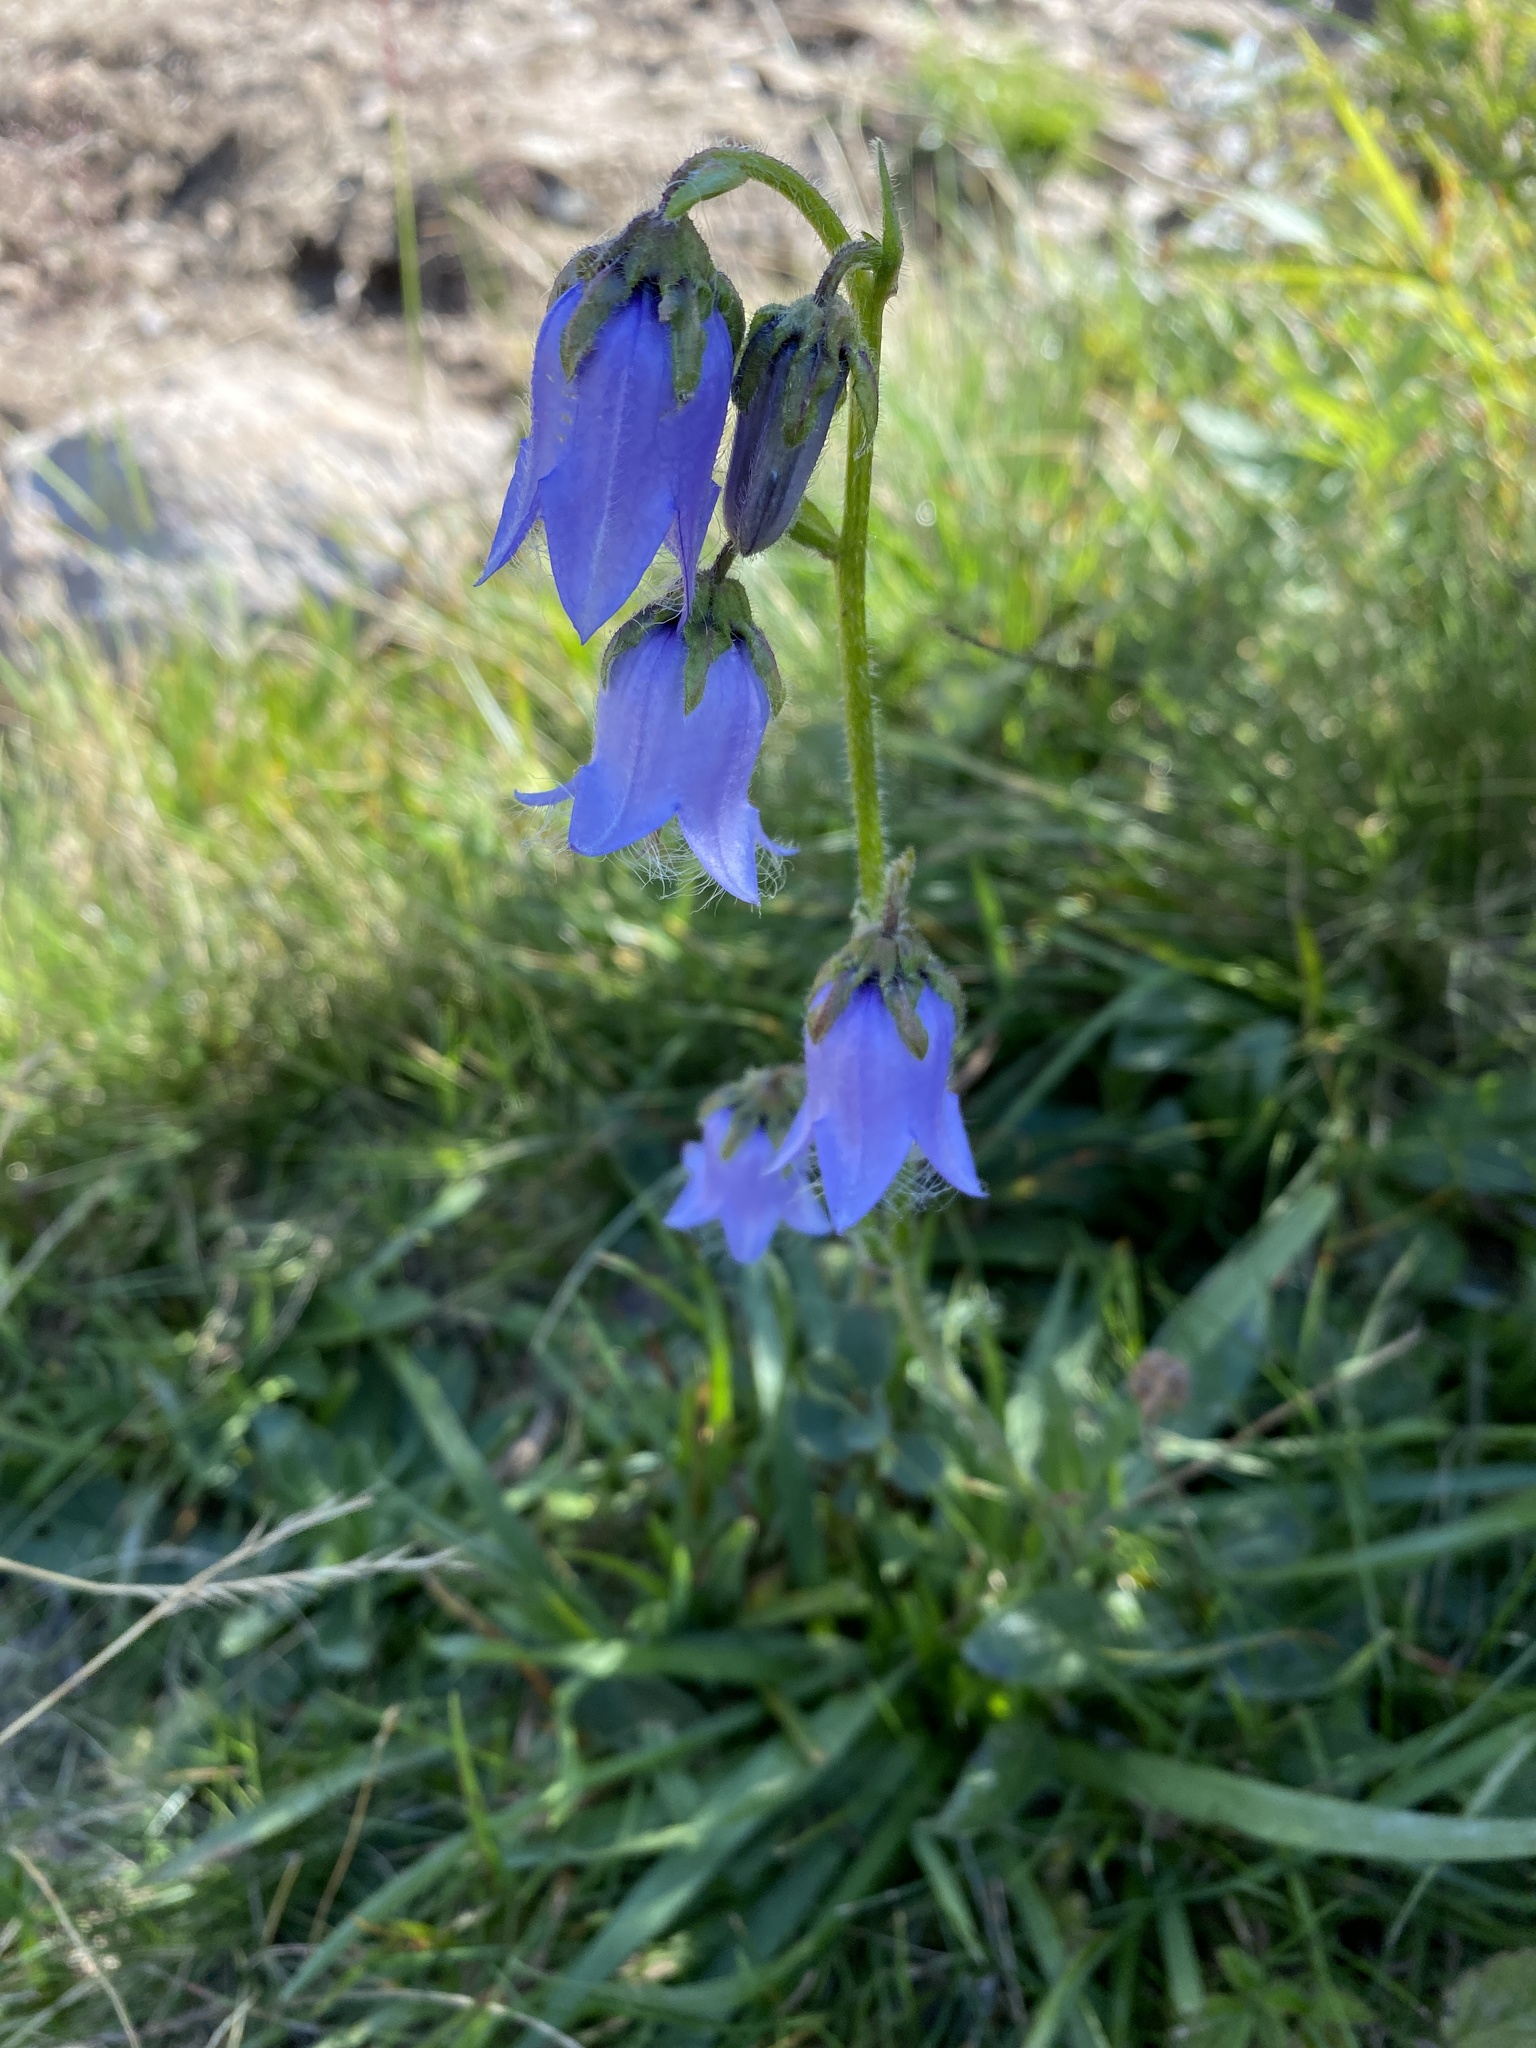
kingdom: Plantae
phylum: Tracheophyta
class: Magnoliopsida
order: Asterales
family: Campanulaceae
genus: Campanula
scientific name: Campanula barbata
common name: Bearded bellflower
